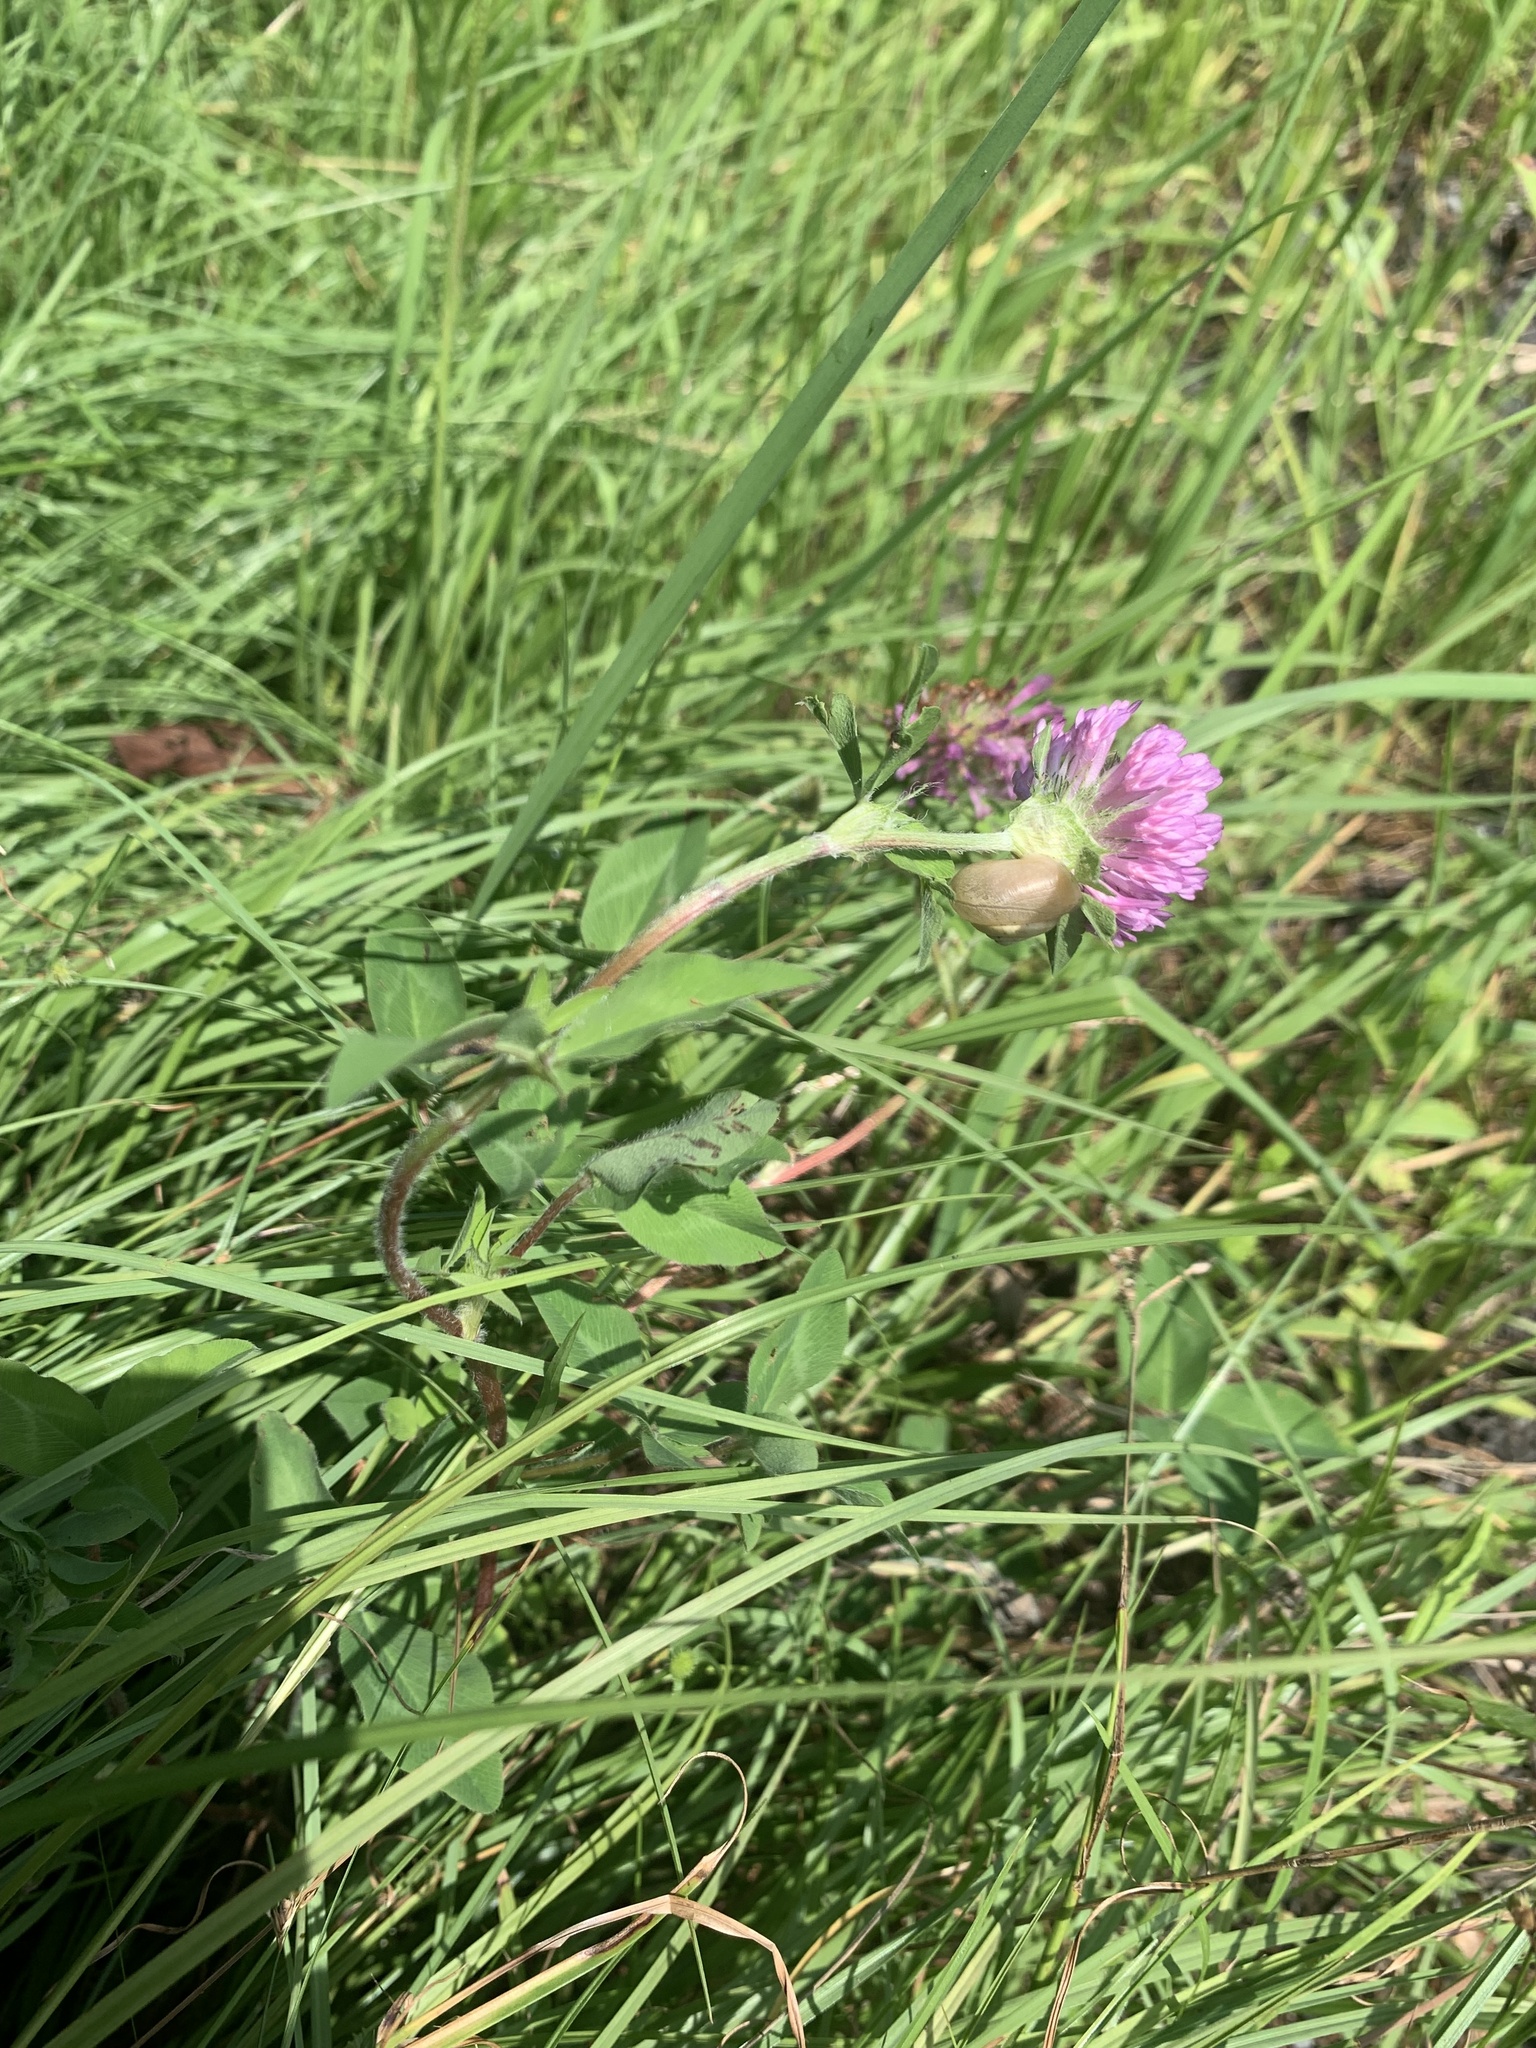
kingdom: Plantae
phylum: Tracheophyta
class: Magnoliopsida
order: Fabales
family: Fabaceae
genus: Trifolium
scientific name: Trifolium pratense
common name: Red clover
